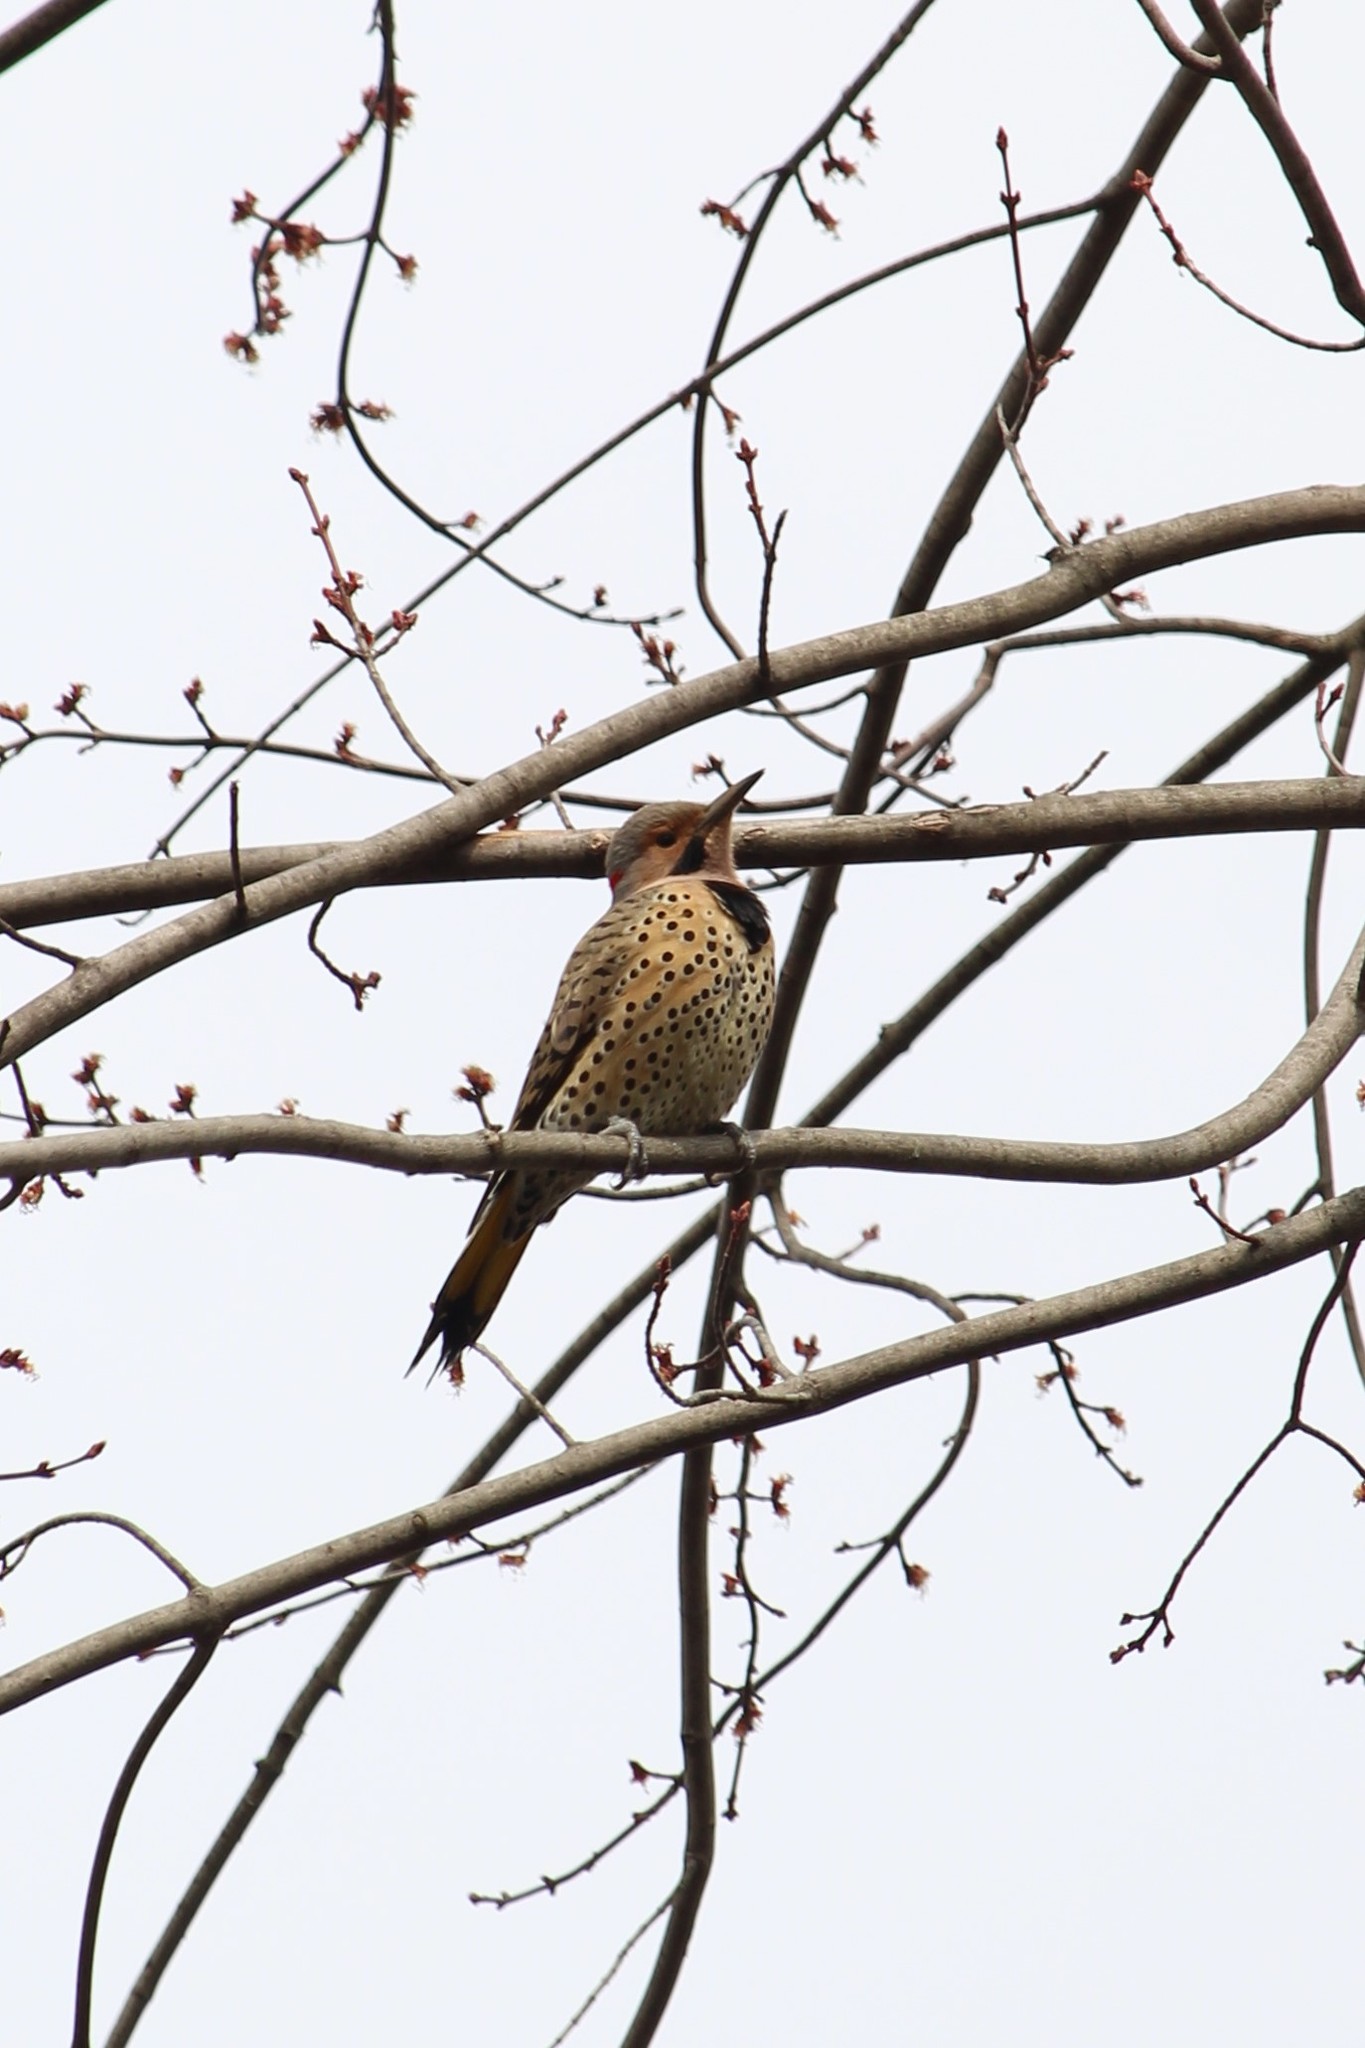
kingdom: Animalia
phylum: Chordata
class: Aves
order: Piciformes
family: Picidae
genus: Colaptes
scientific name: Colaptes auratus
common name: Northern flicker
